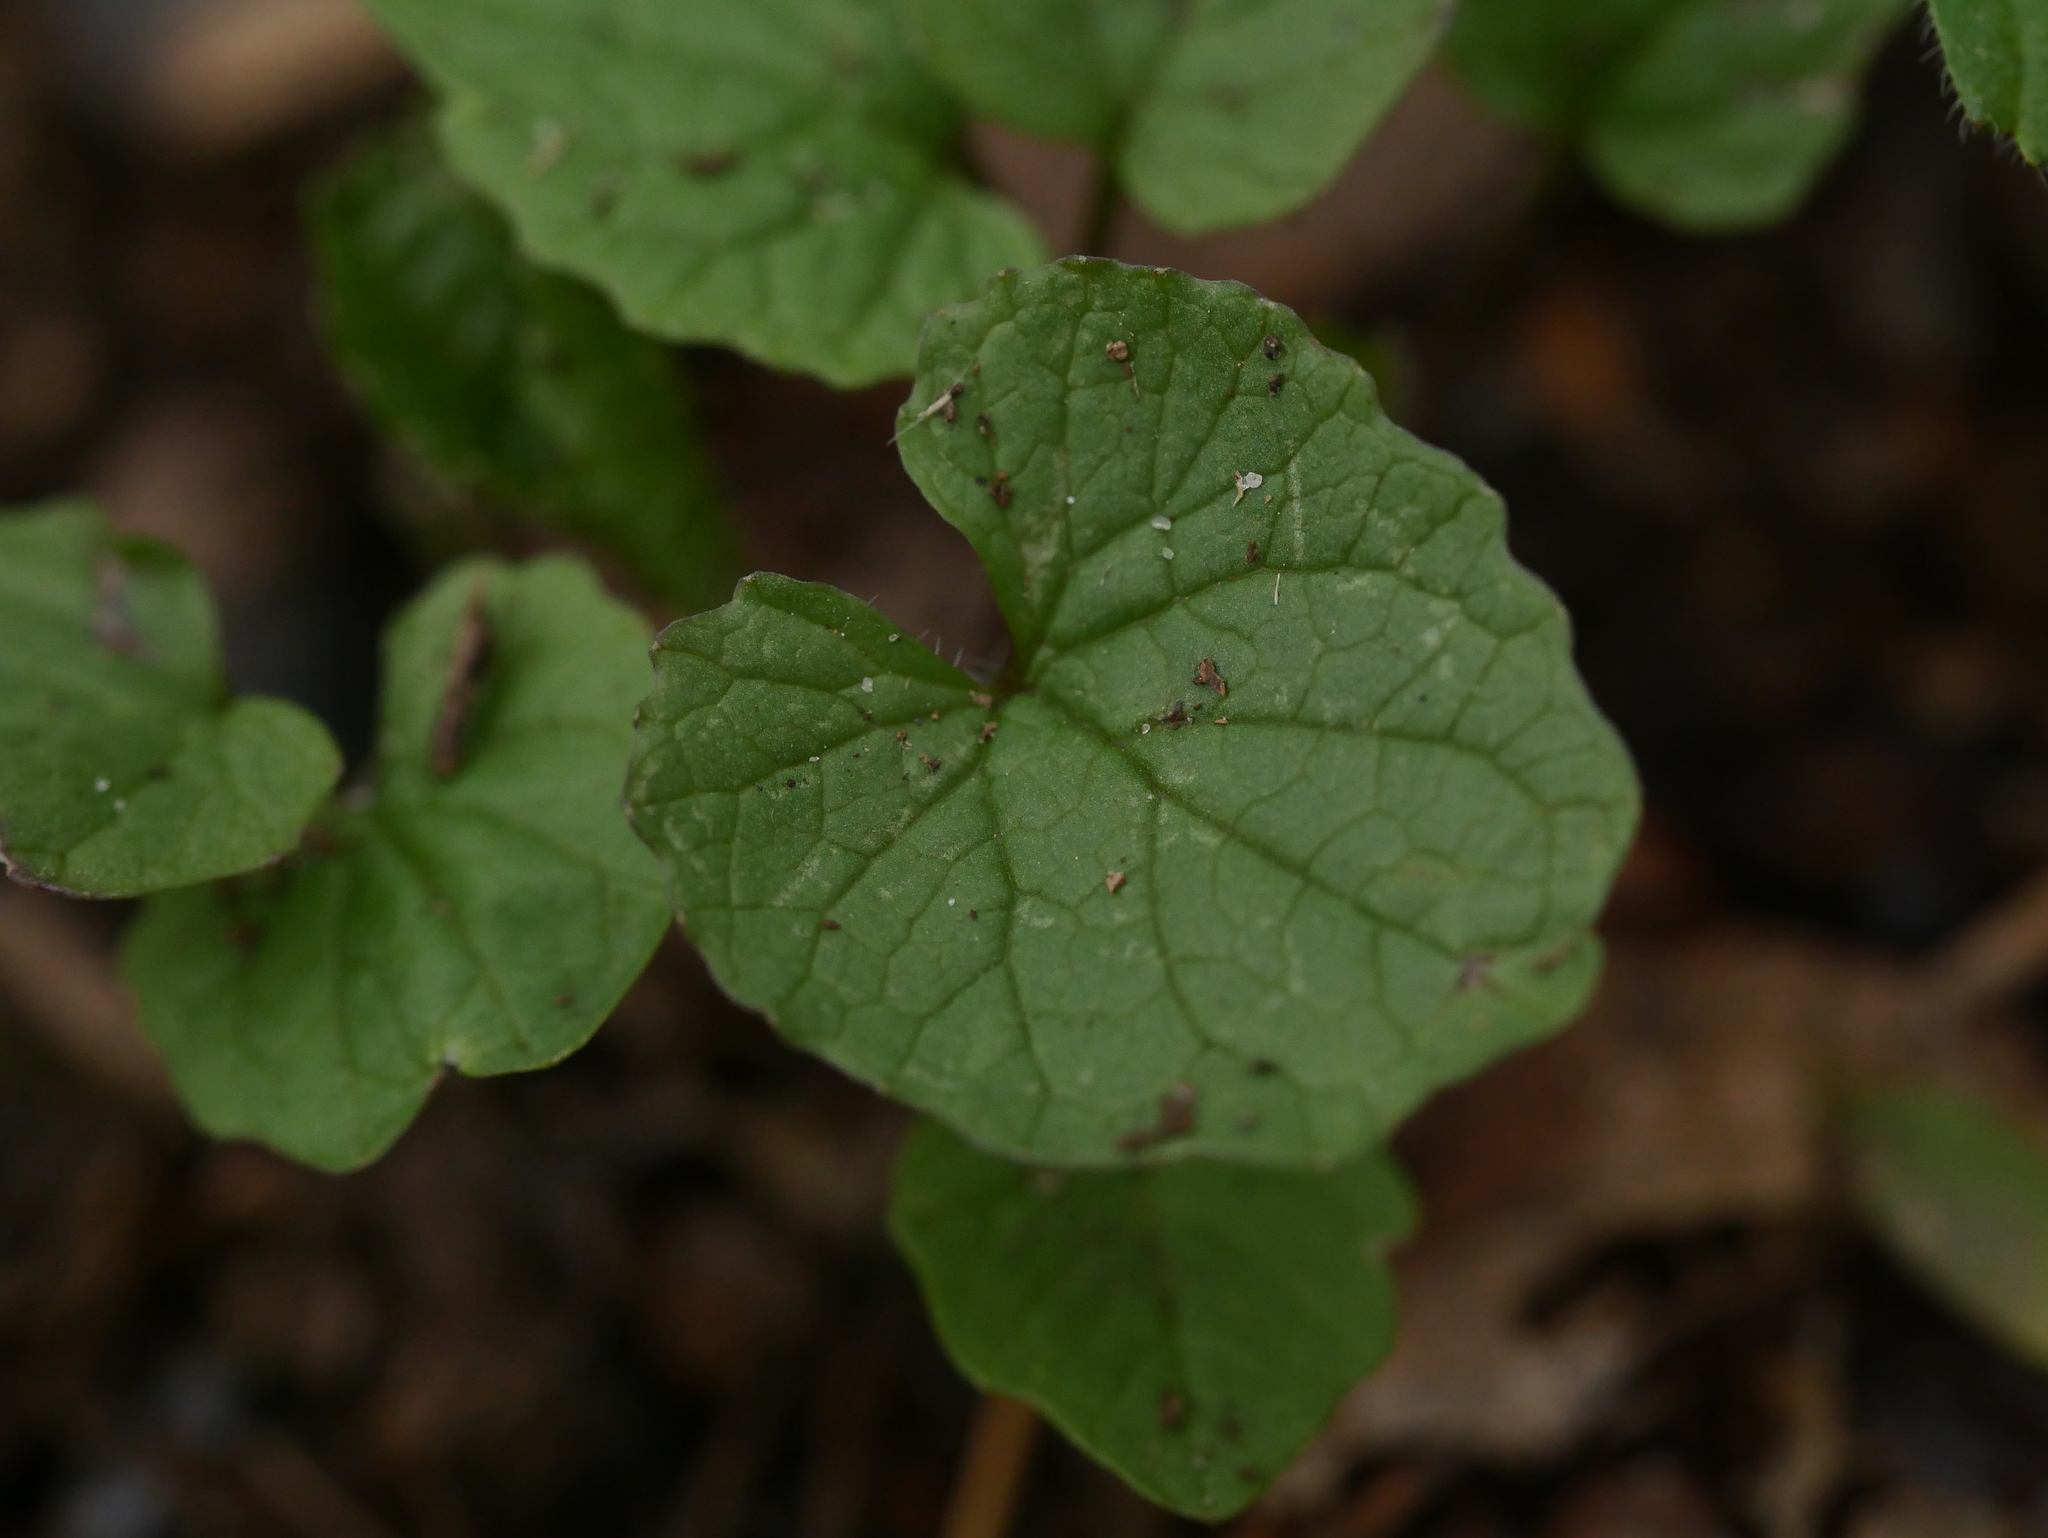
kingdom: Plantae
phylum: Tracheophyta
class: Magnoliopsida
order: Brassicales
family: Brassicaceae
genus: Alliaria
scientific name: Alliaria petiolata
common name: Garlic mustard
